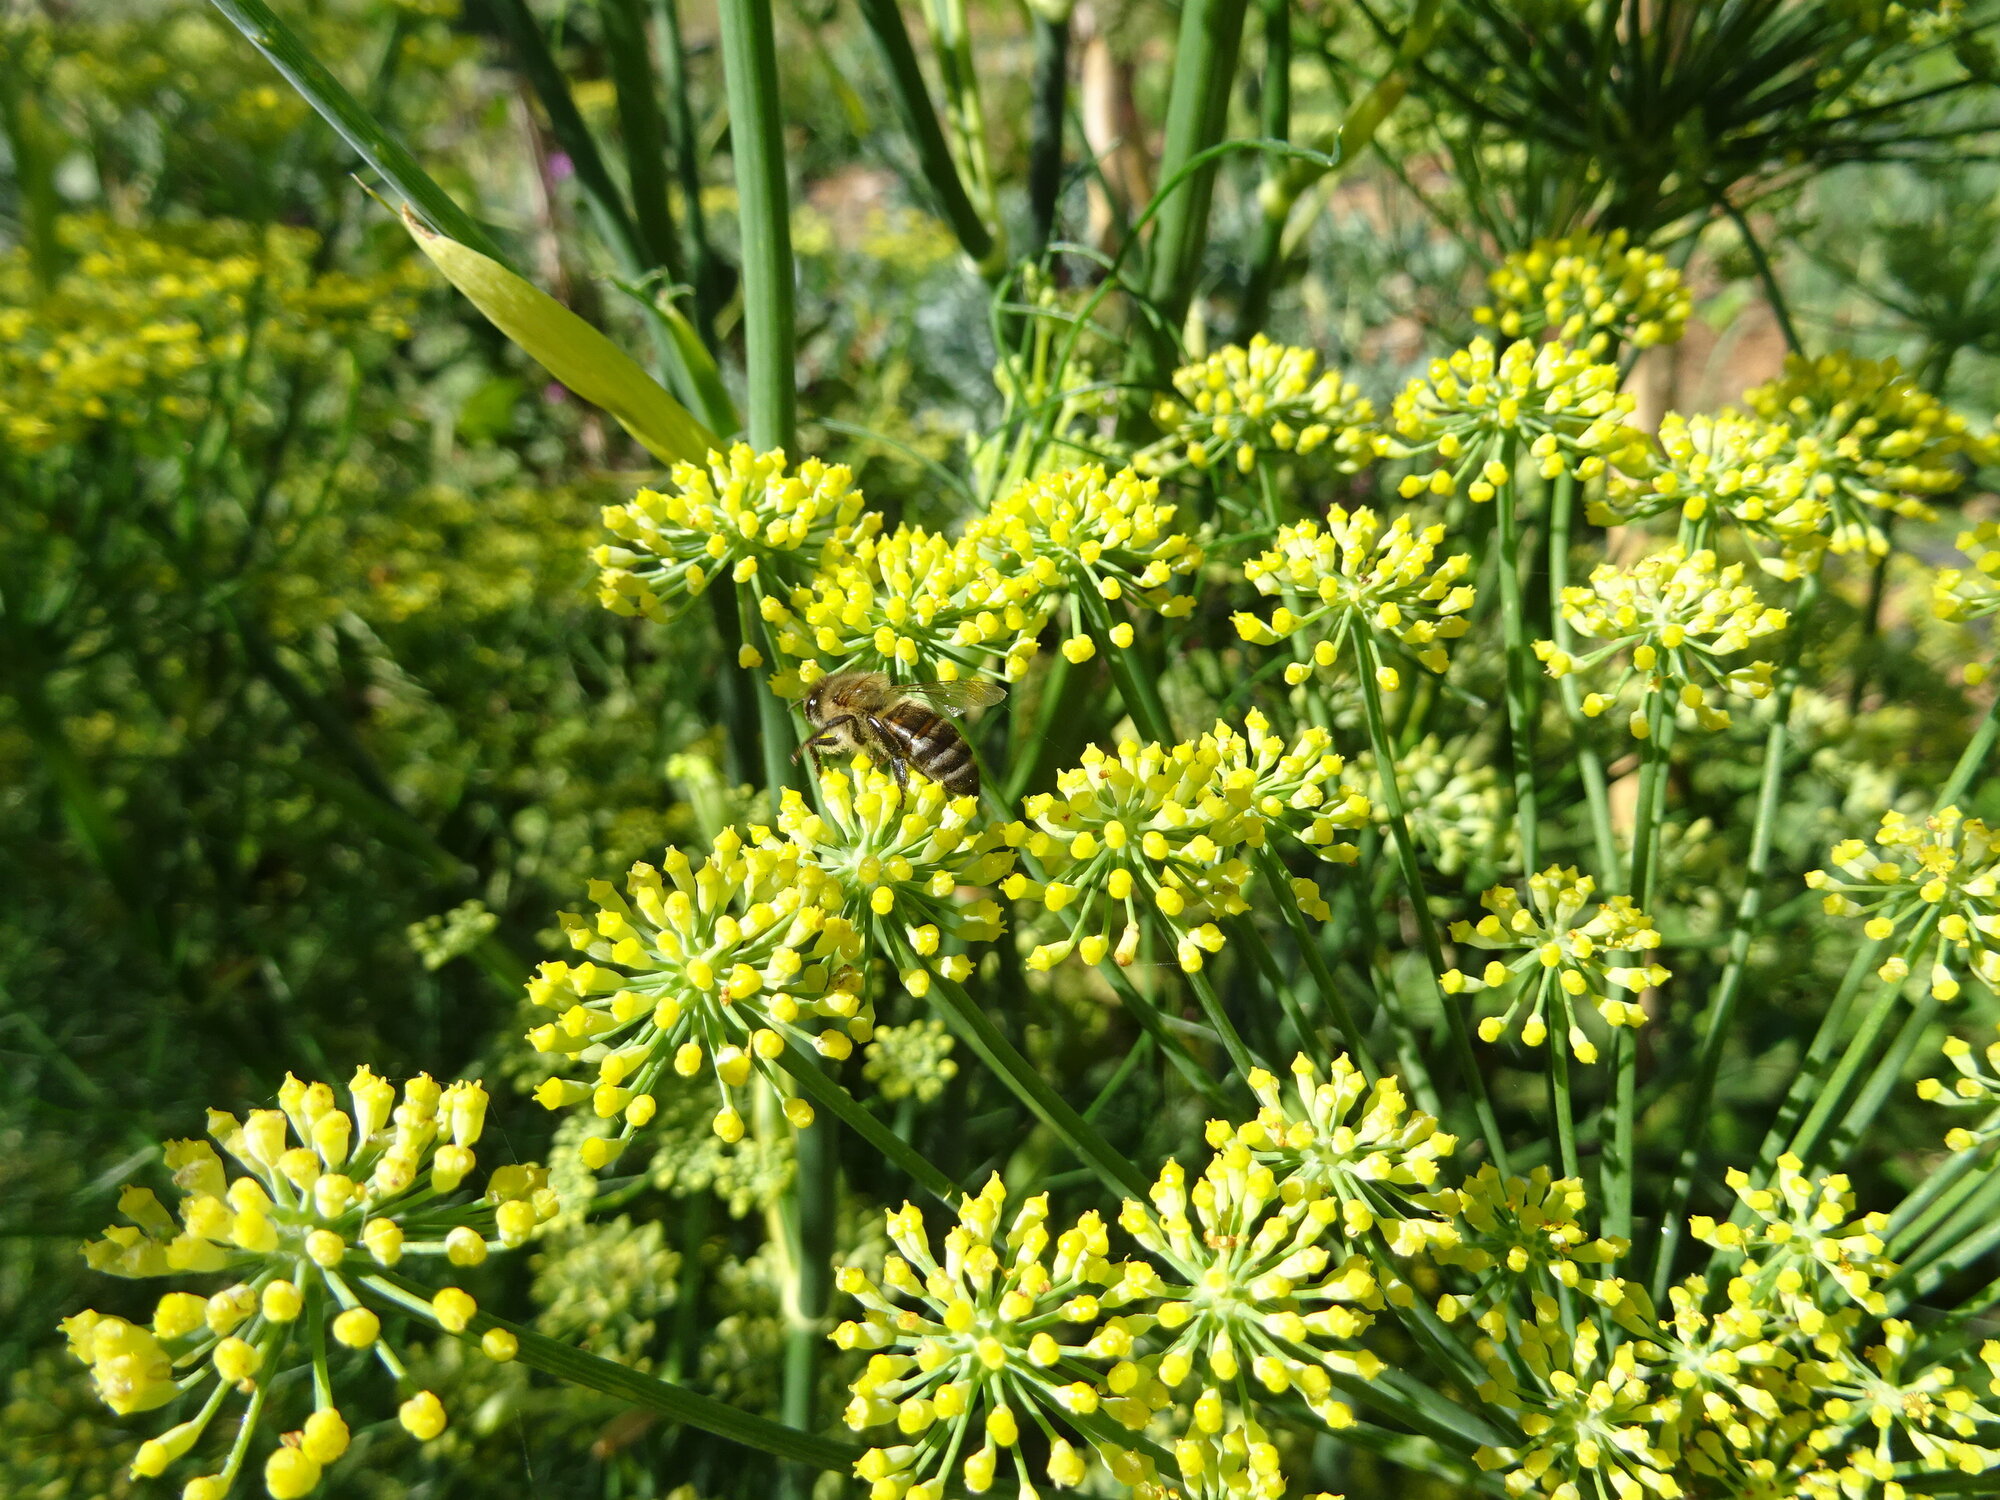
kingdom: Animalia
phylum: Arthropoda
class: Insecta
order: Hymenoptera
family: Apidae
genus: Apis
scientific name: Apis mellifera
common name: Honey bee
